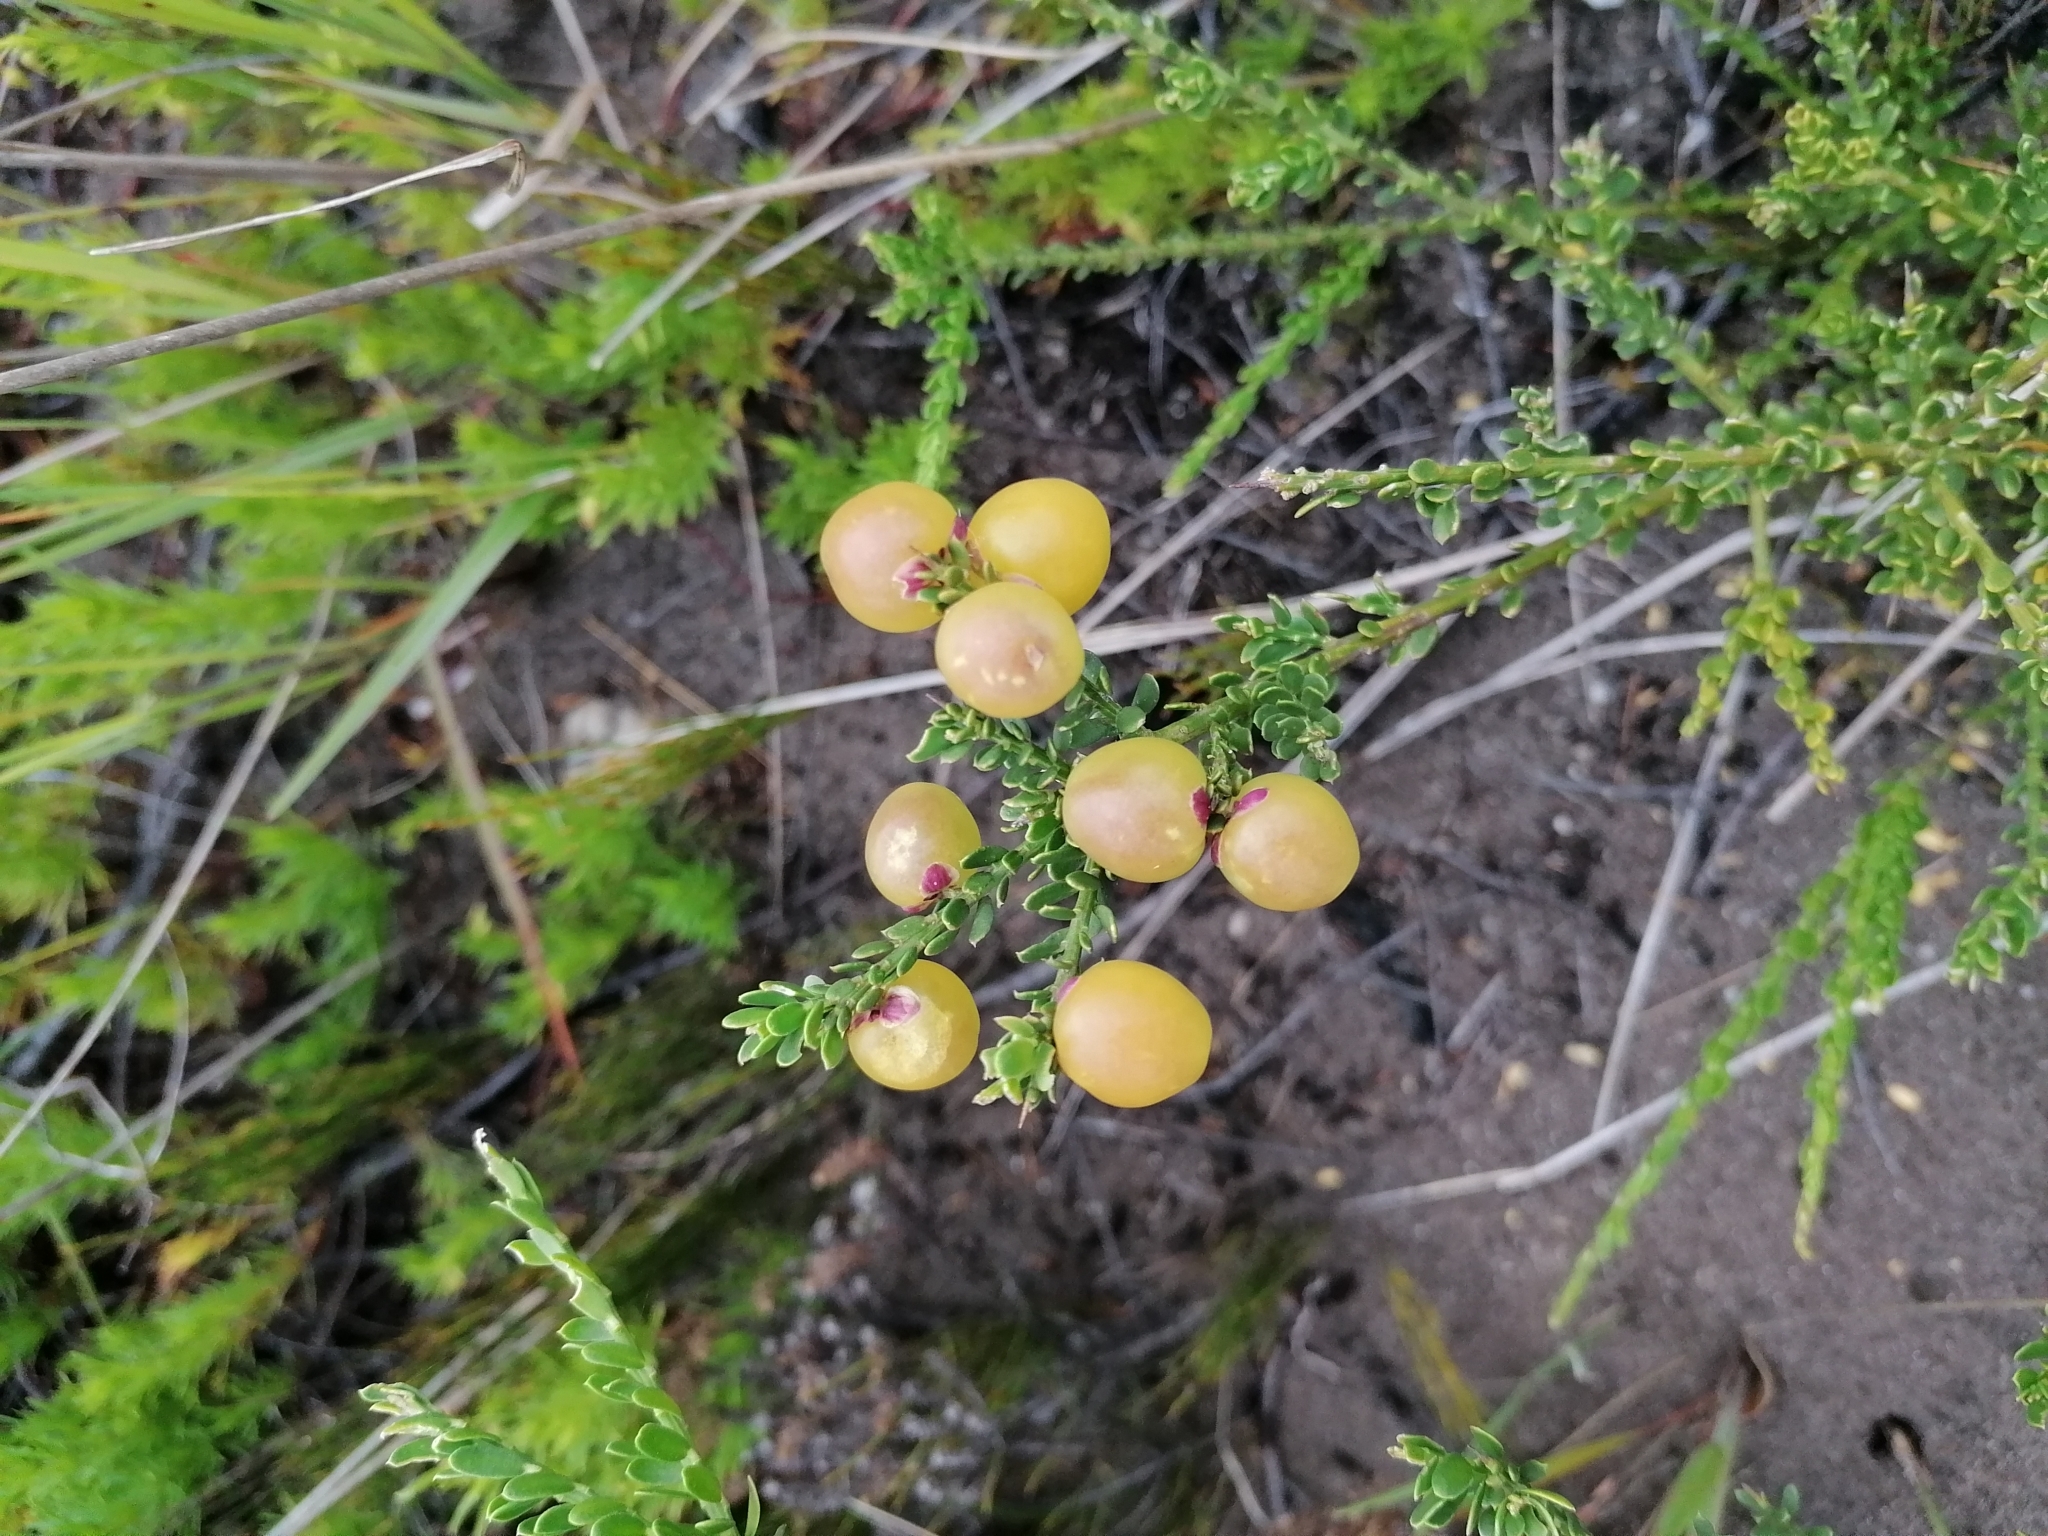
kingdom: Plantae
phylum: Tracheophyta
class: Magnoliopsida
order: Fabales
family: Polygalaceae
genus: Muraltia
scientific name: Muraltia spinosa
